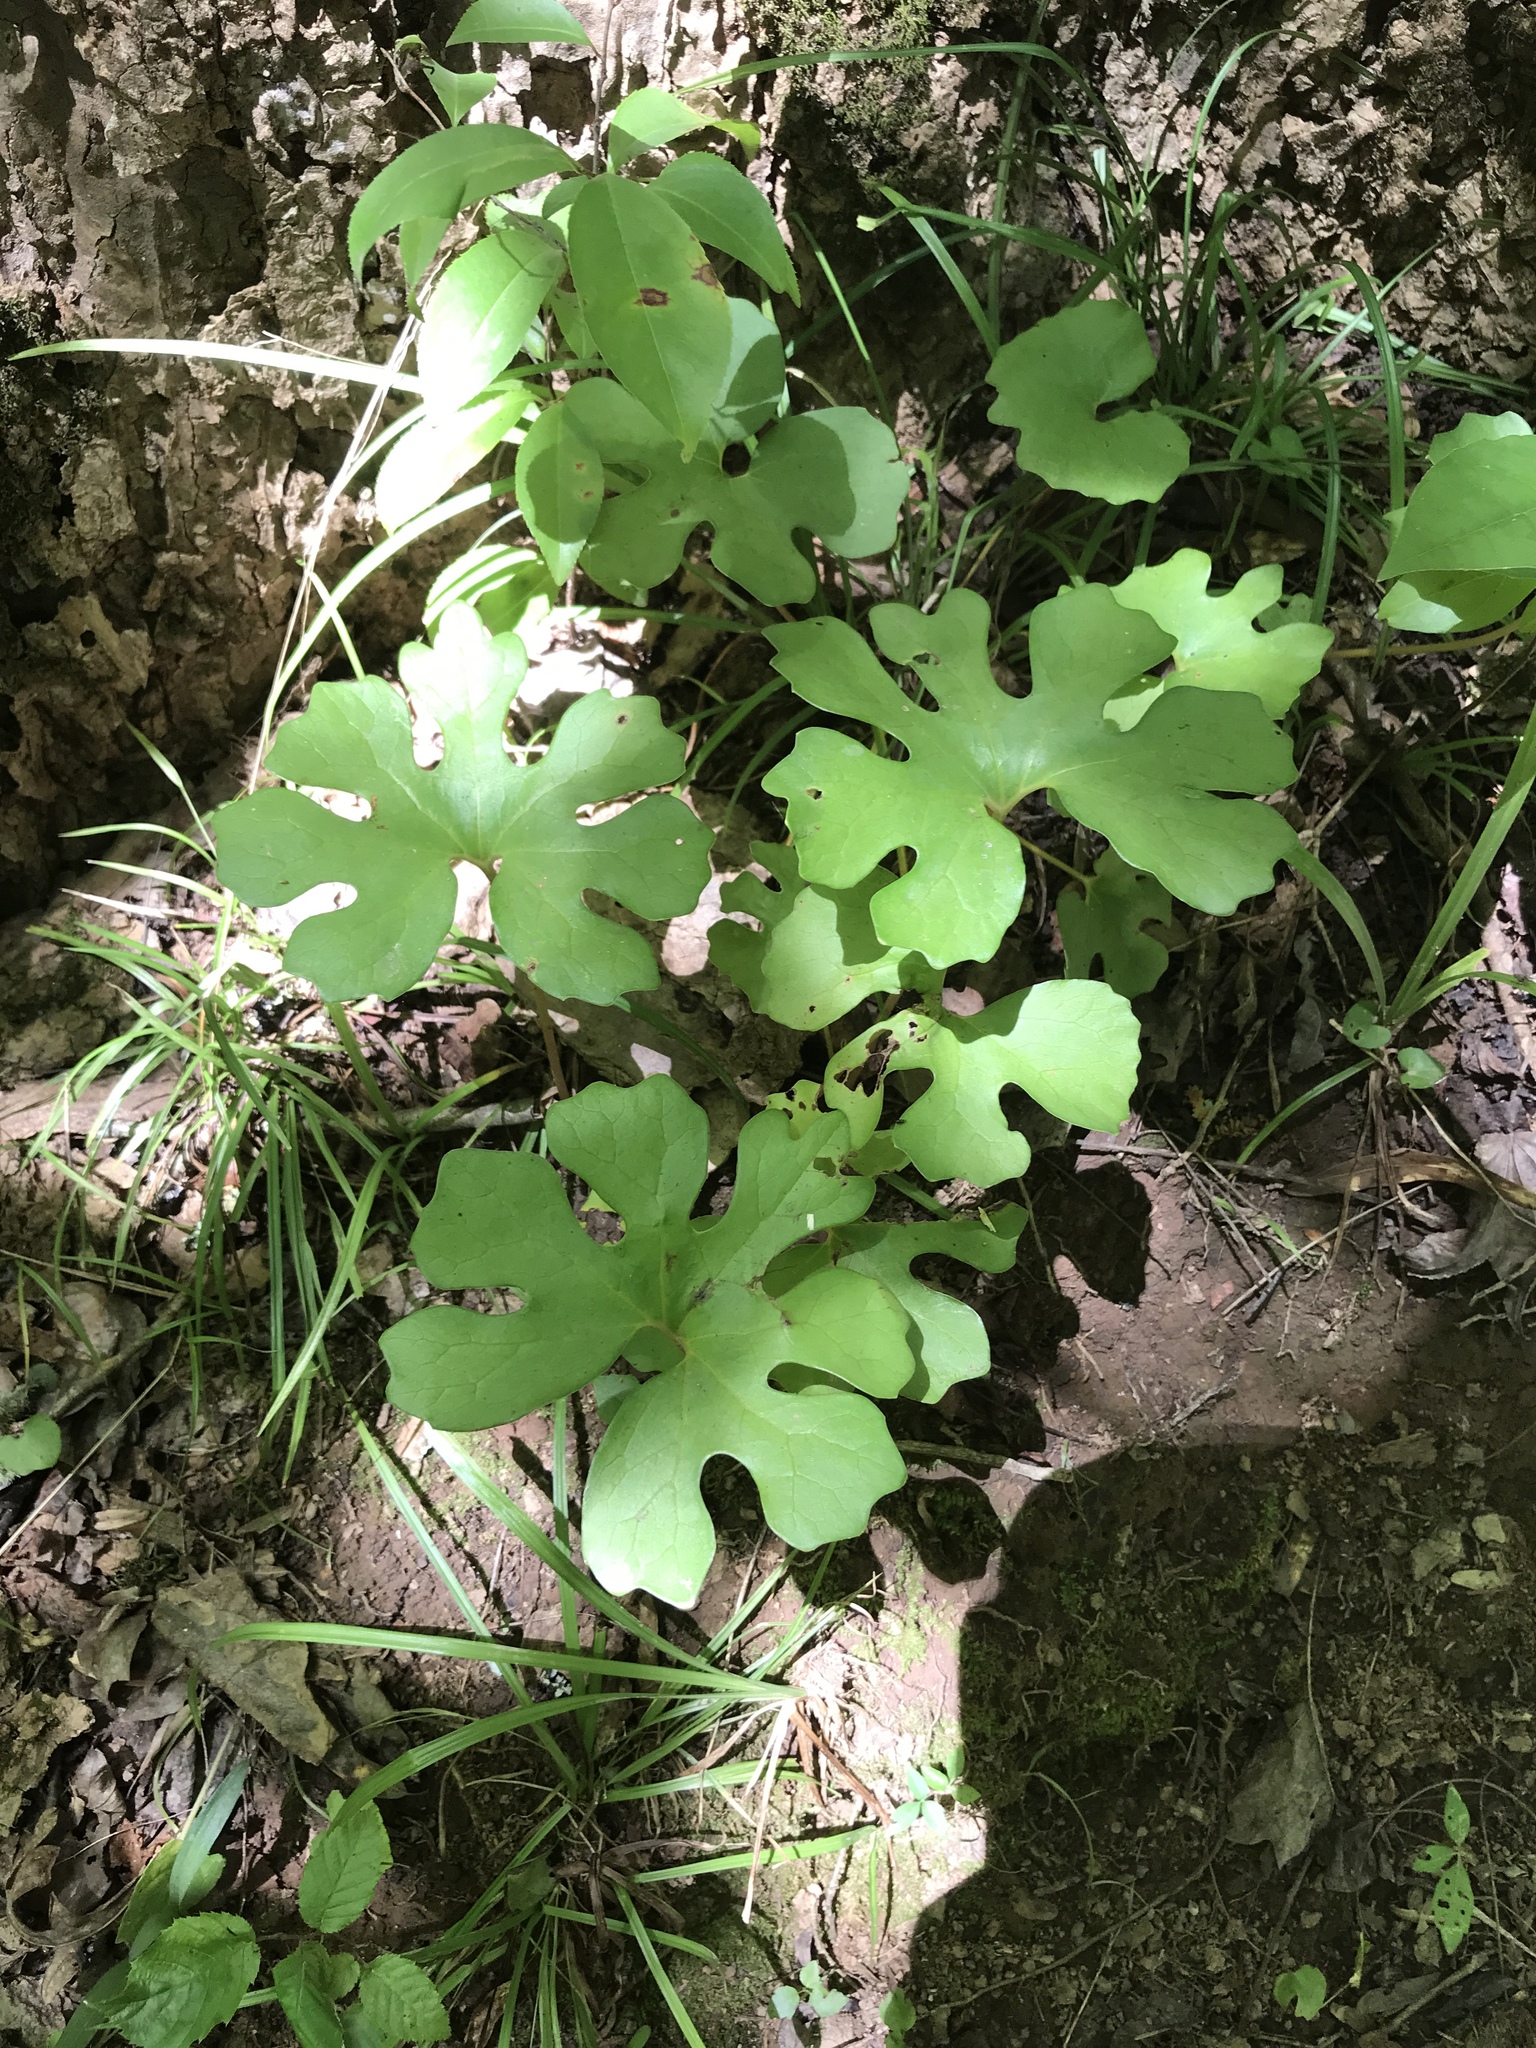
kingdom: Plantae
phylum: Tracheophyta
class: Magnoliopsida
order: Ranunculales
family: Papaveraceae
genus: Sanguinaria
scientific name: Sanguinaria canadensis
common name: Bloodroot
